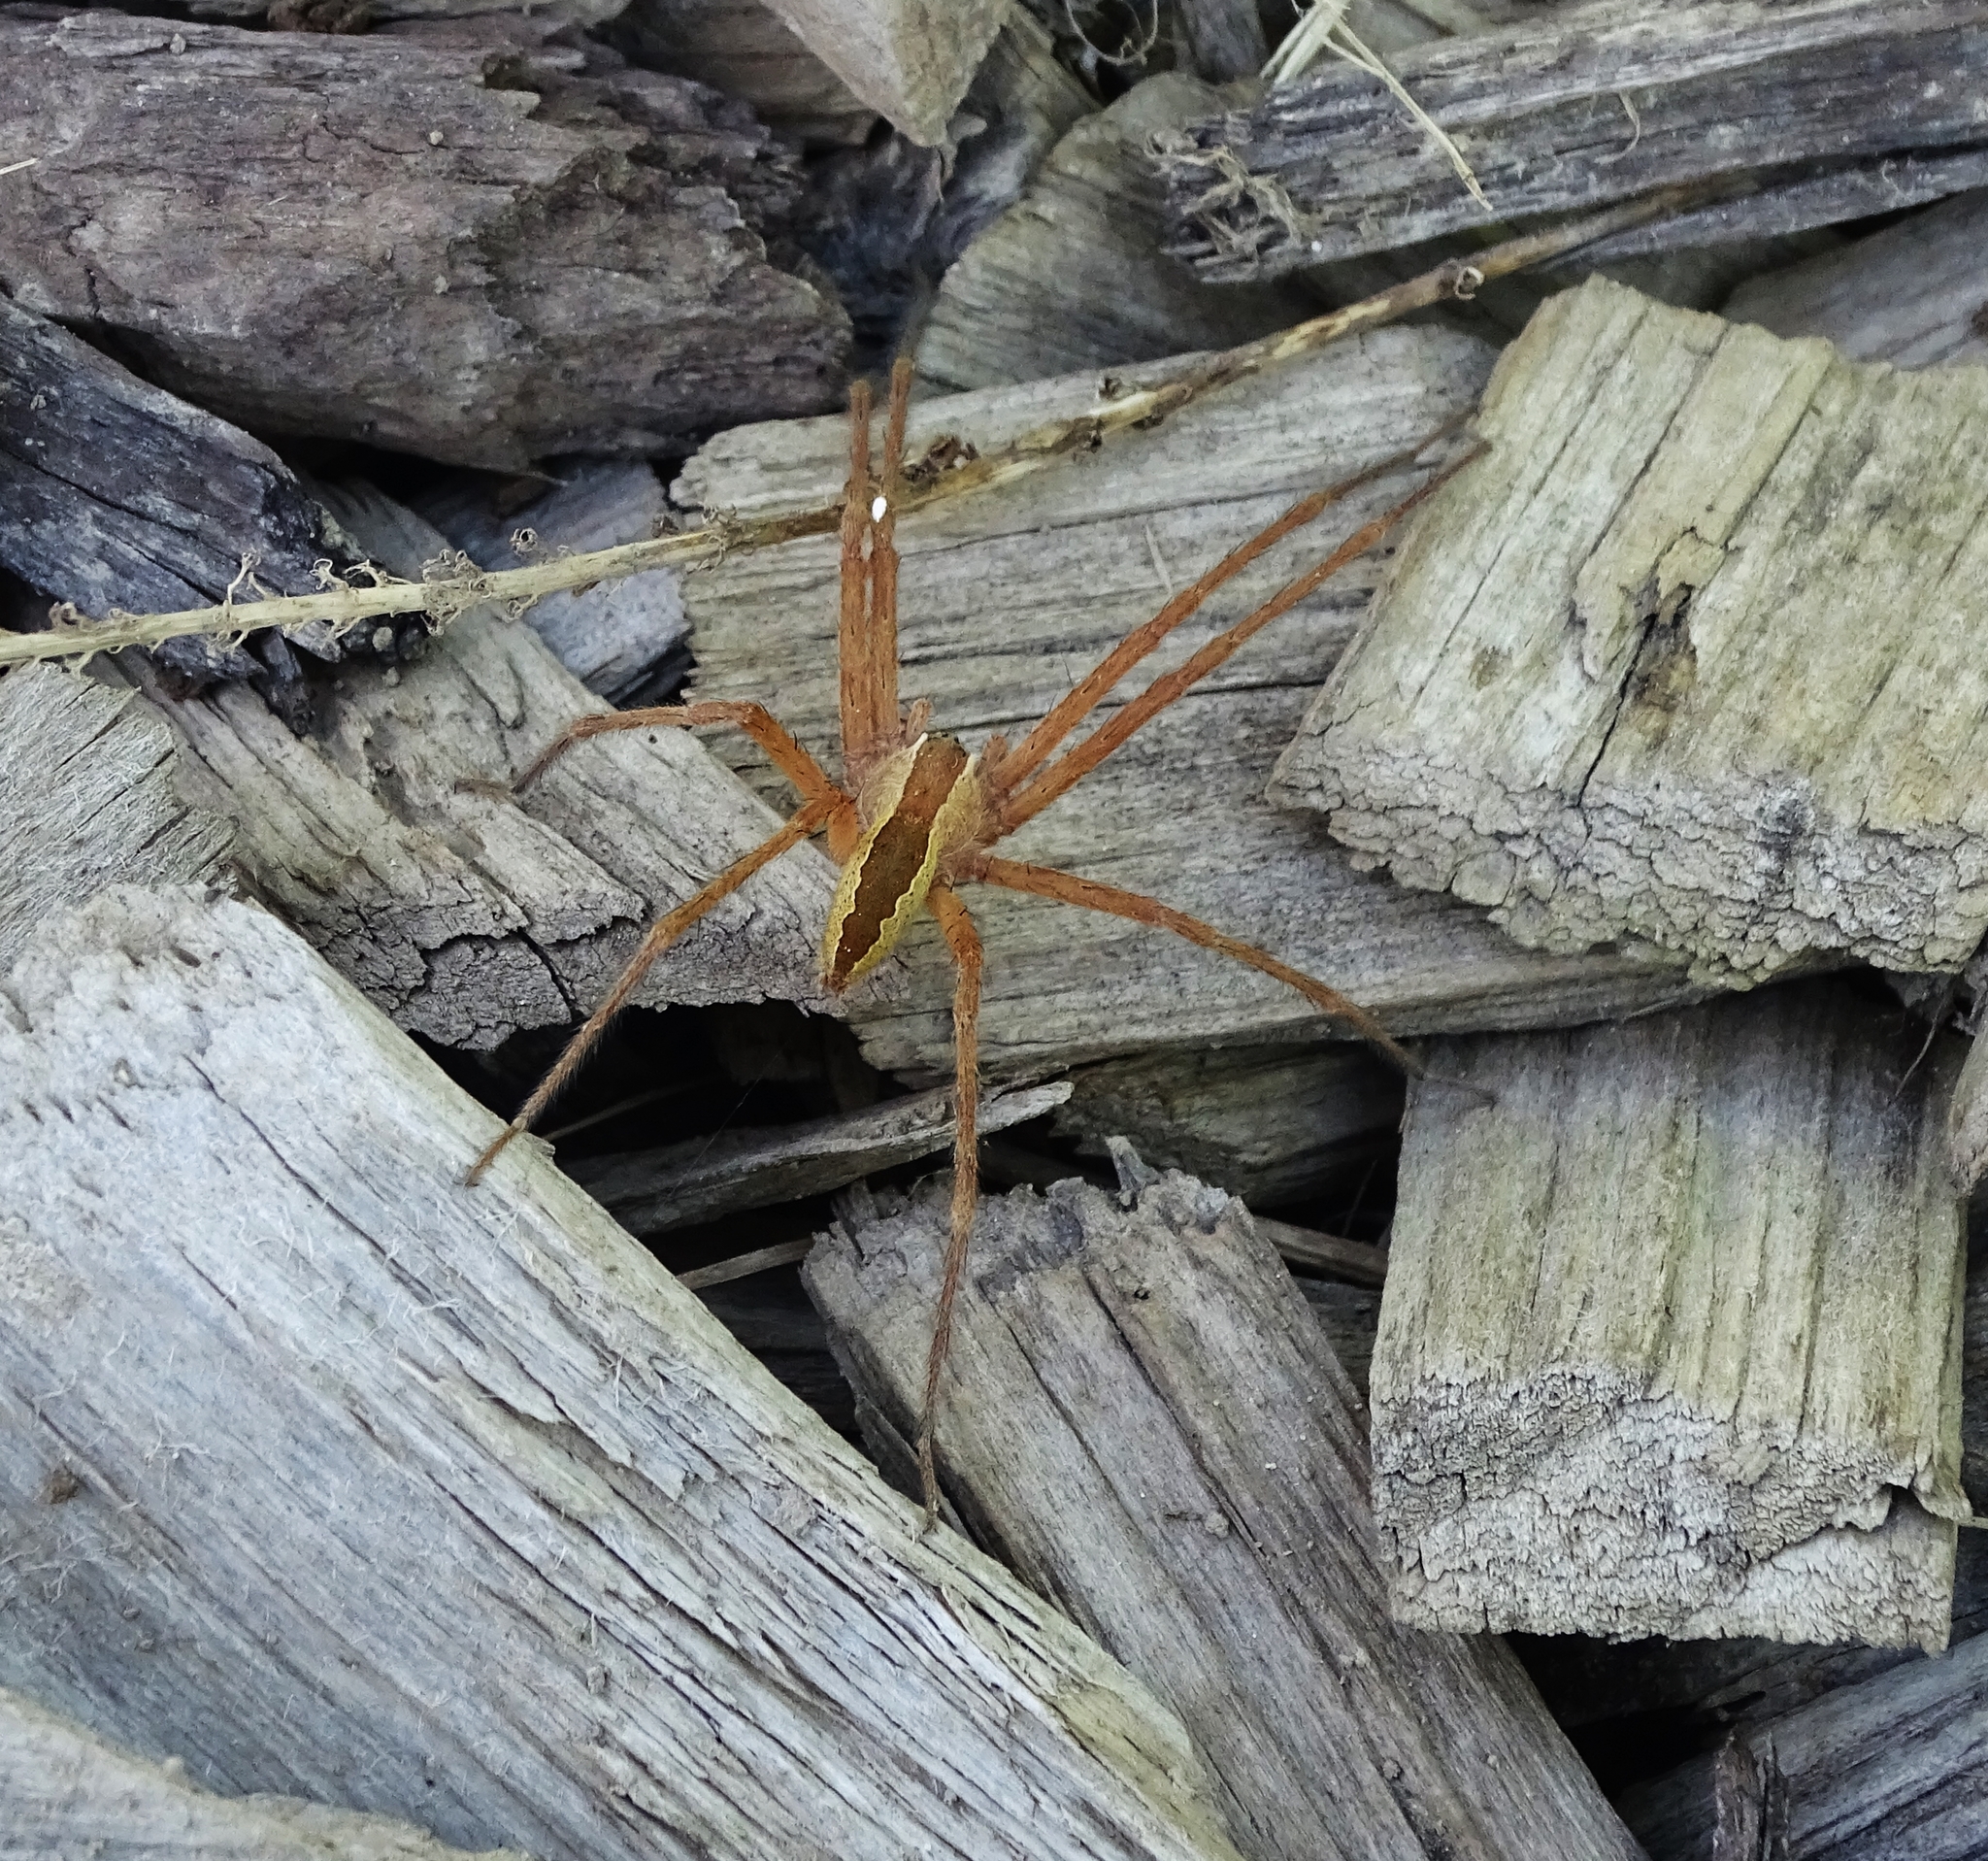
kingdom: Animalia
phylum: Arthropoda
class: Arachnida
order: Araneae
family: Pisauridae
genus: Pisaurina
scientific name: Pisaurina mira
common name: American nursery web spider
